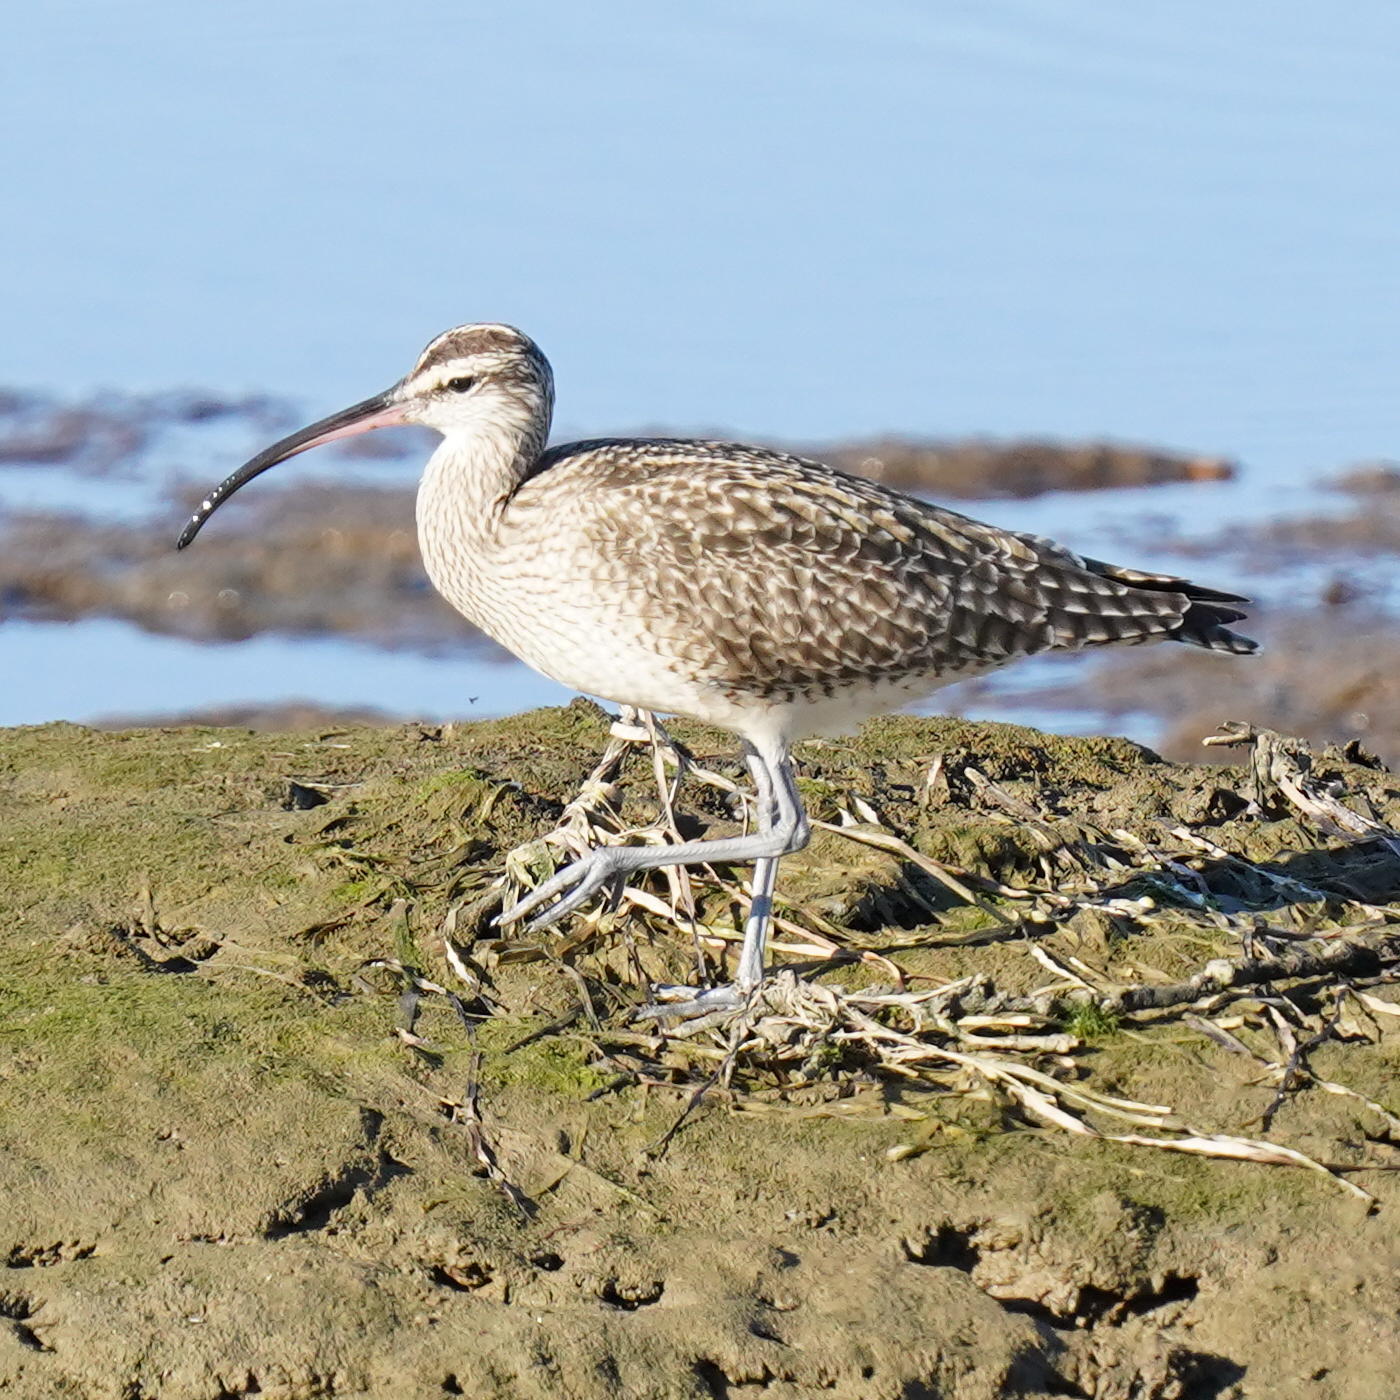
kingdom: Animalia
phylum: Chordata
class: Aves
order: Charadriiformes
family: Scolopacidae
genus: Numenius
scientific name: Numenius phaeopus
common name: Whimbrel
